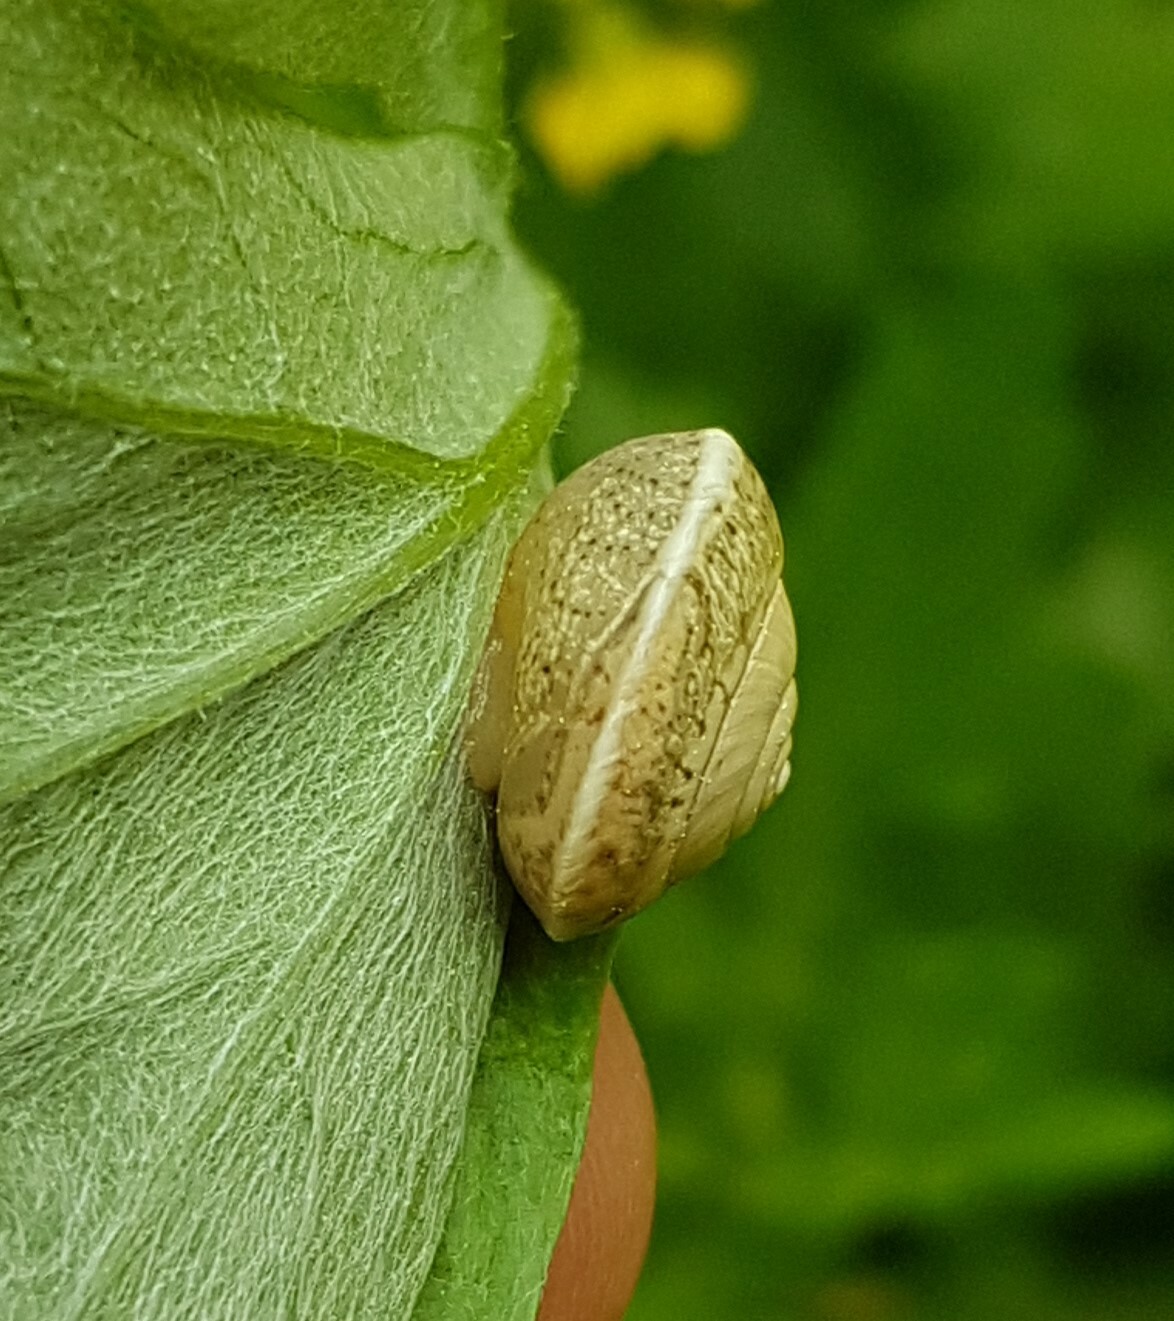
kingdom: Animalia
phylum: Mollusca
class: Gastropoda
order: Stylommatophora
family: Hygromiidae
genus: Hygromia
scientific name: Hygromia cinctella
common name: Girdled snail
